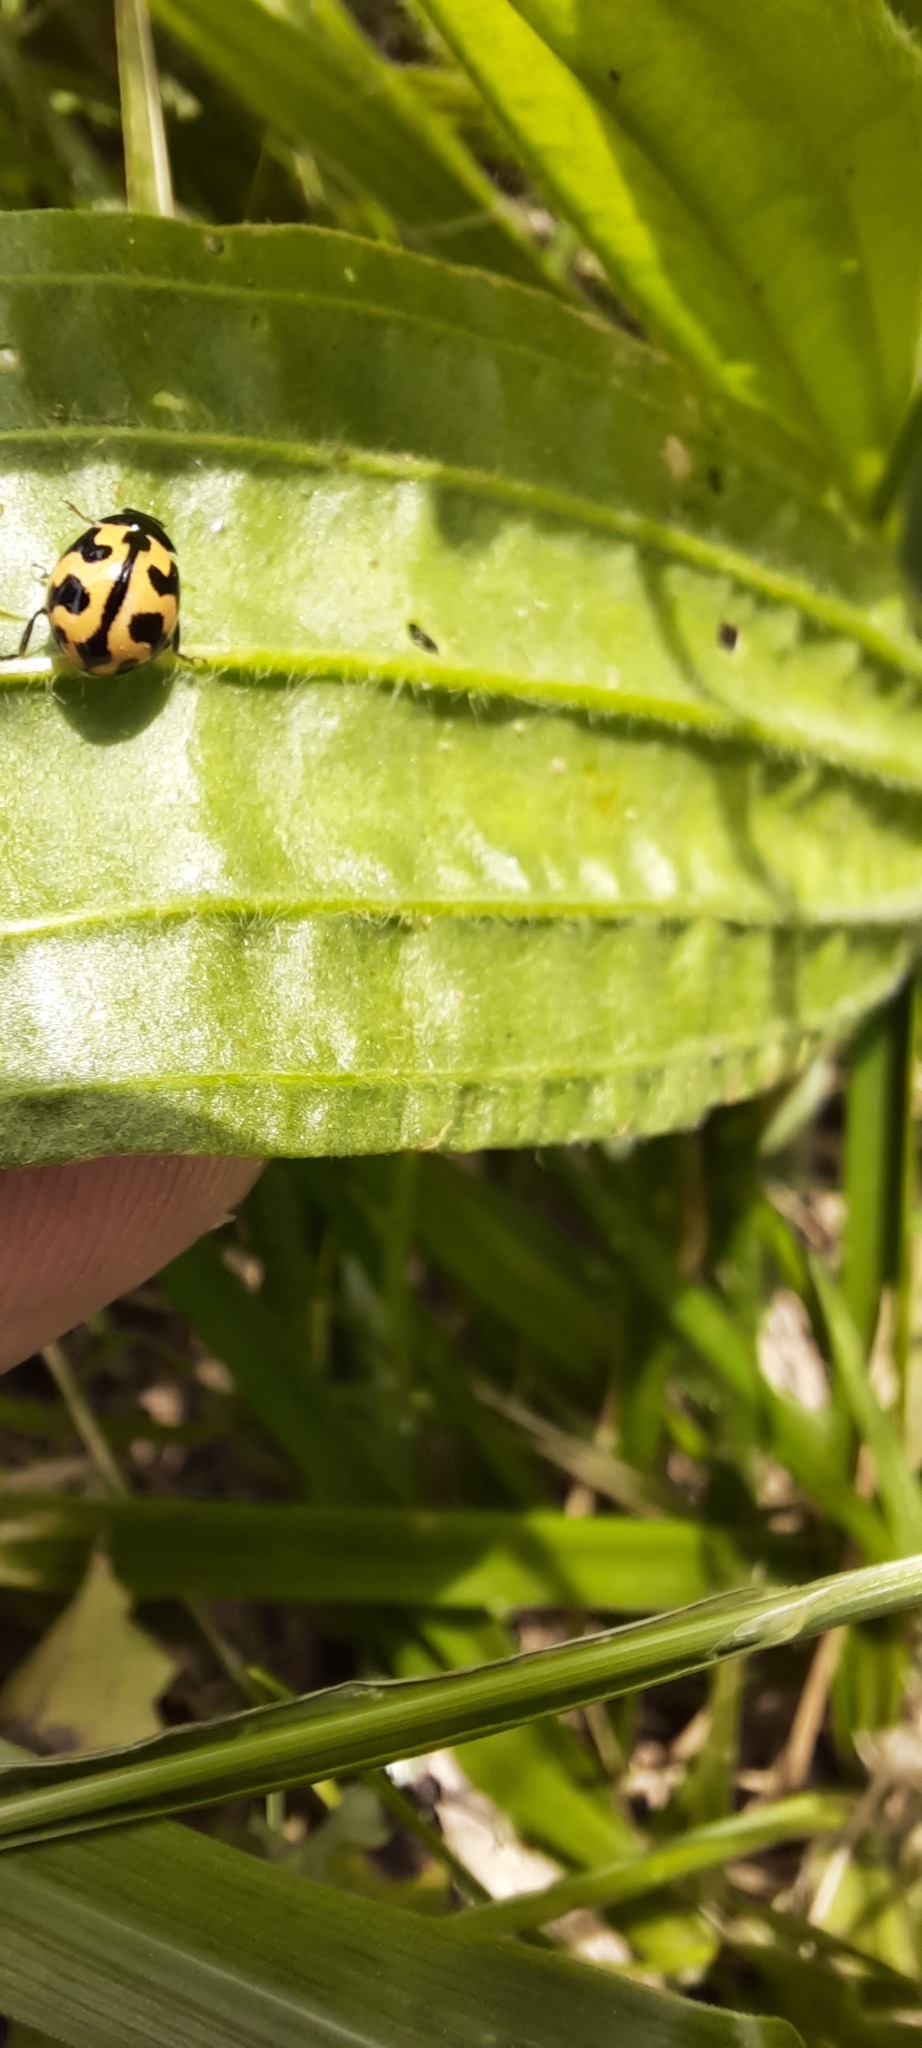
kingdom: Animalia
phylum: Arthropoda
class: Insecta
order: Coleoptera
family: Coccinellidae
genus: Coccinella
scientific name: Coccinella transversalis
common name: Transverse lady beetle
